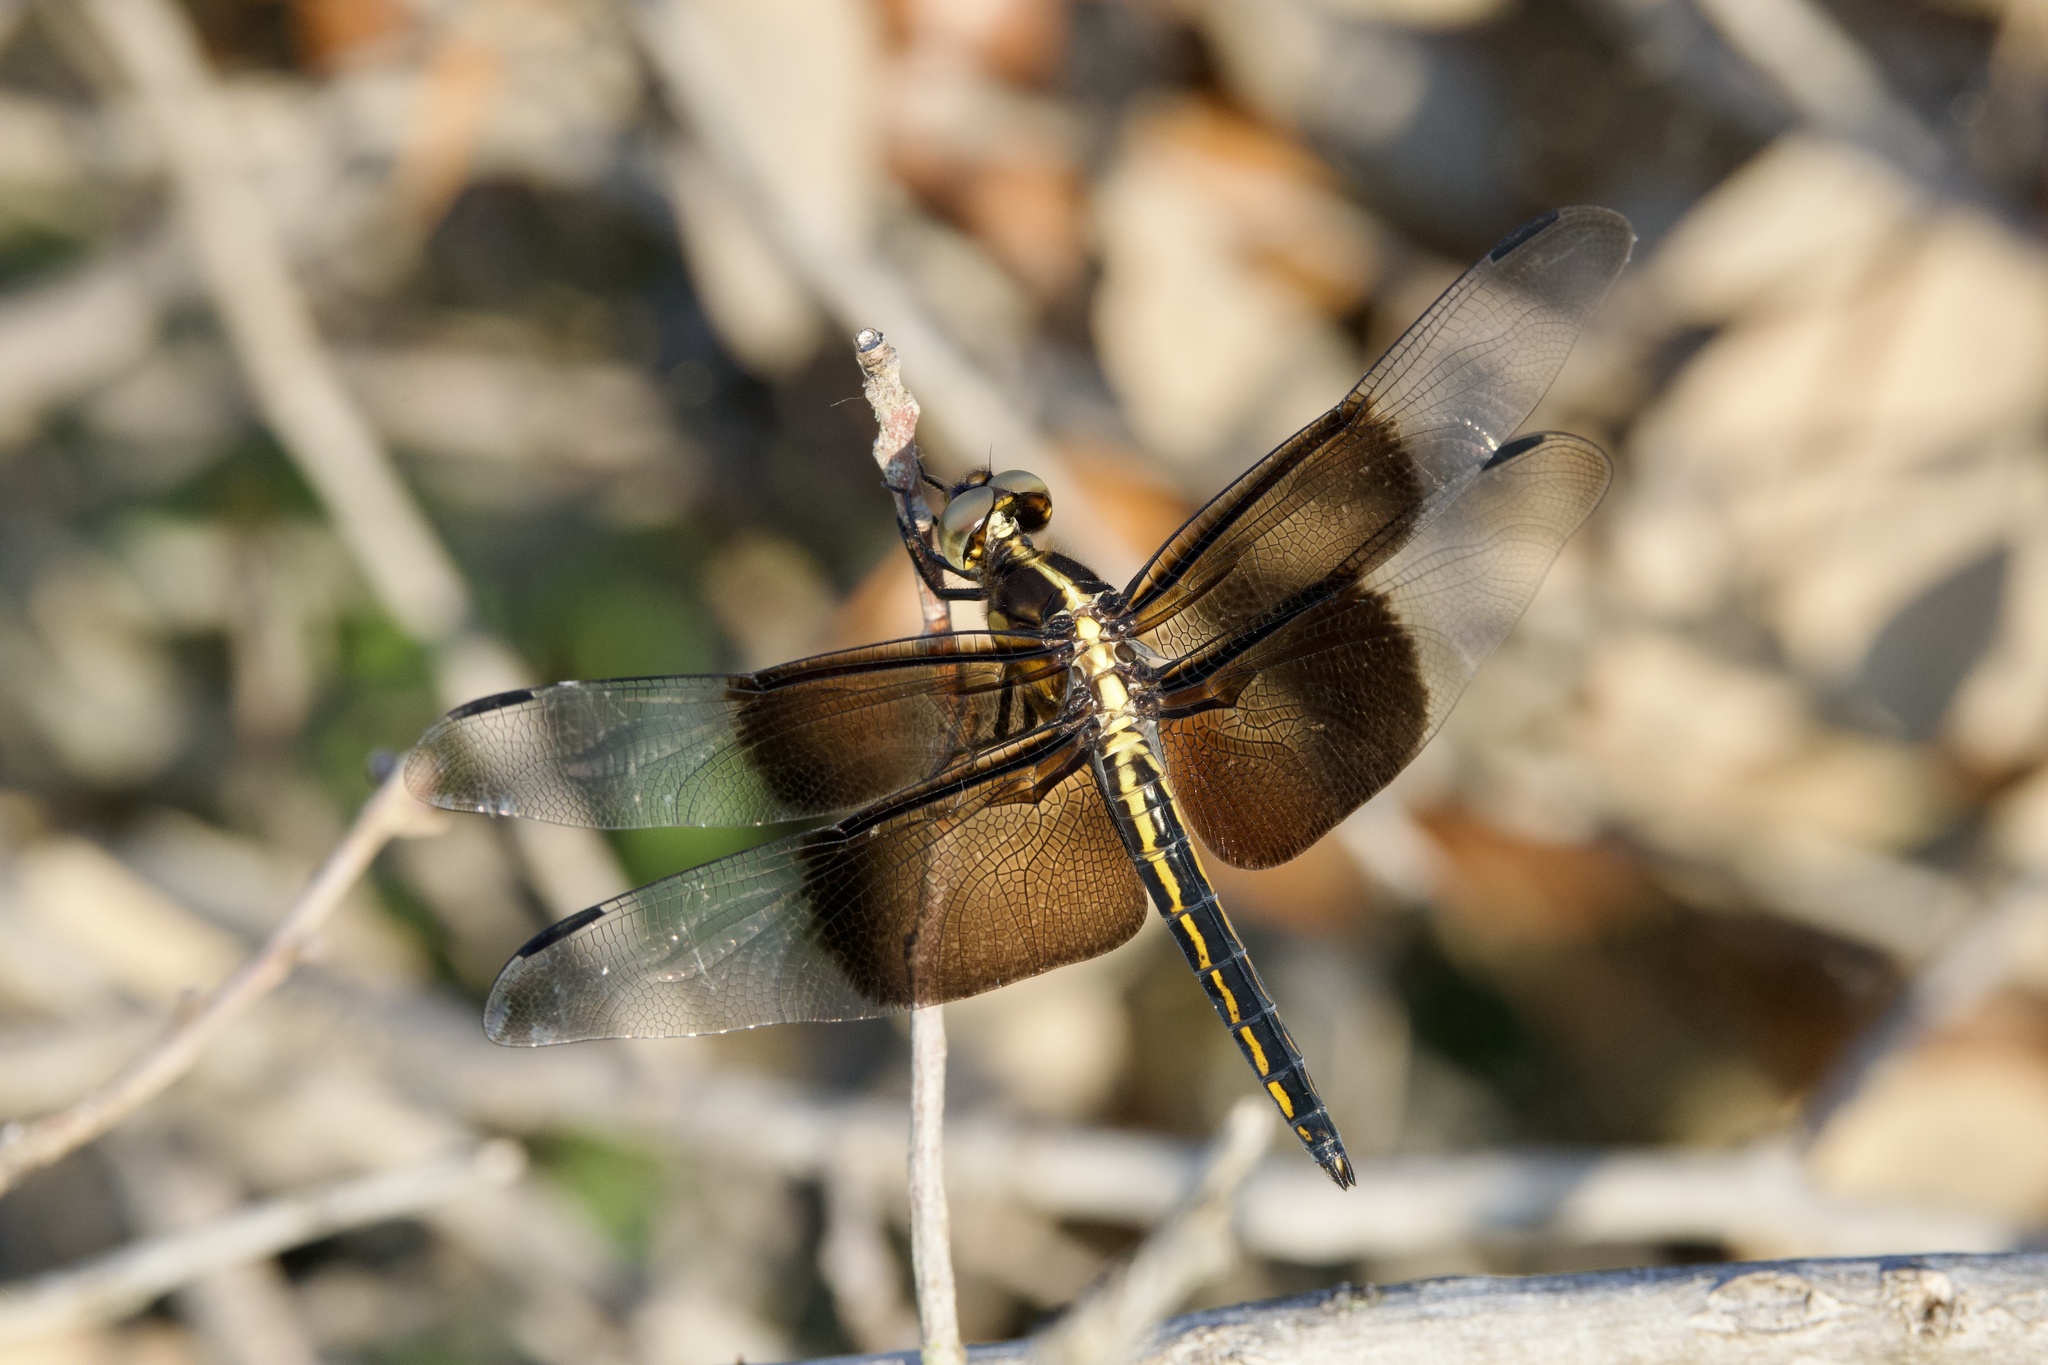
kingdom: Animalia
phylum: Arthropoda
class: Insecta
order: Odonata
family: Libellulidae
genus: Libellula
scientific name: Libellula luctuosa
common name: Widow skimmer
